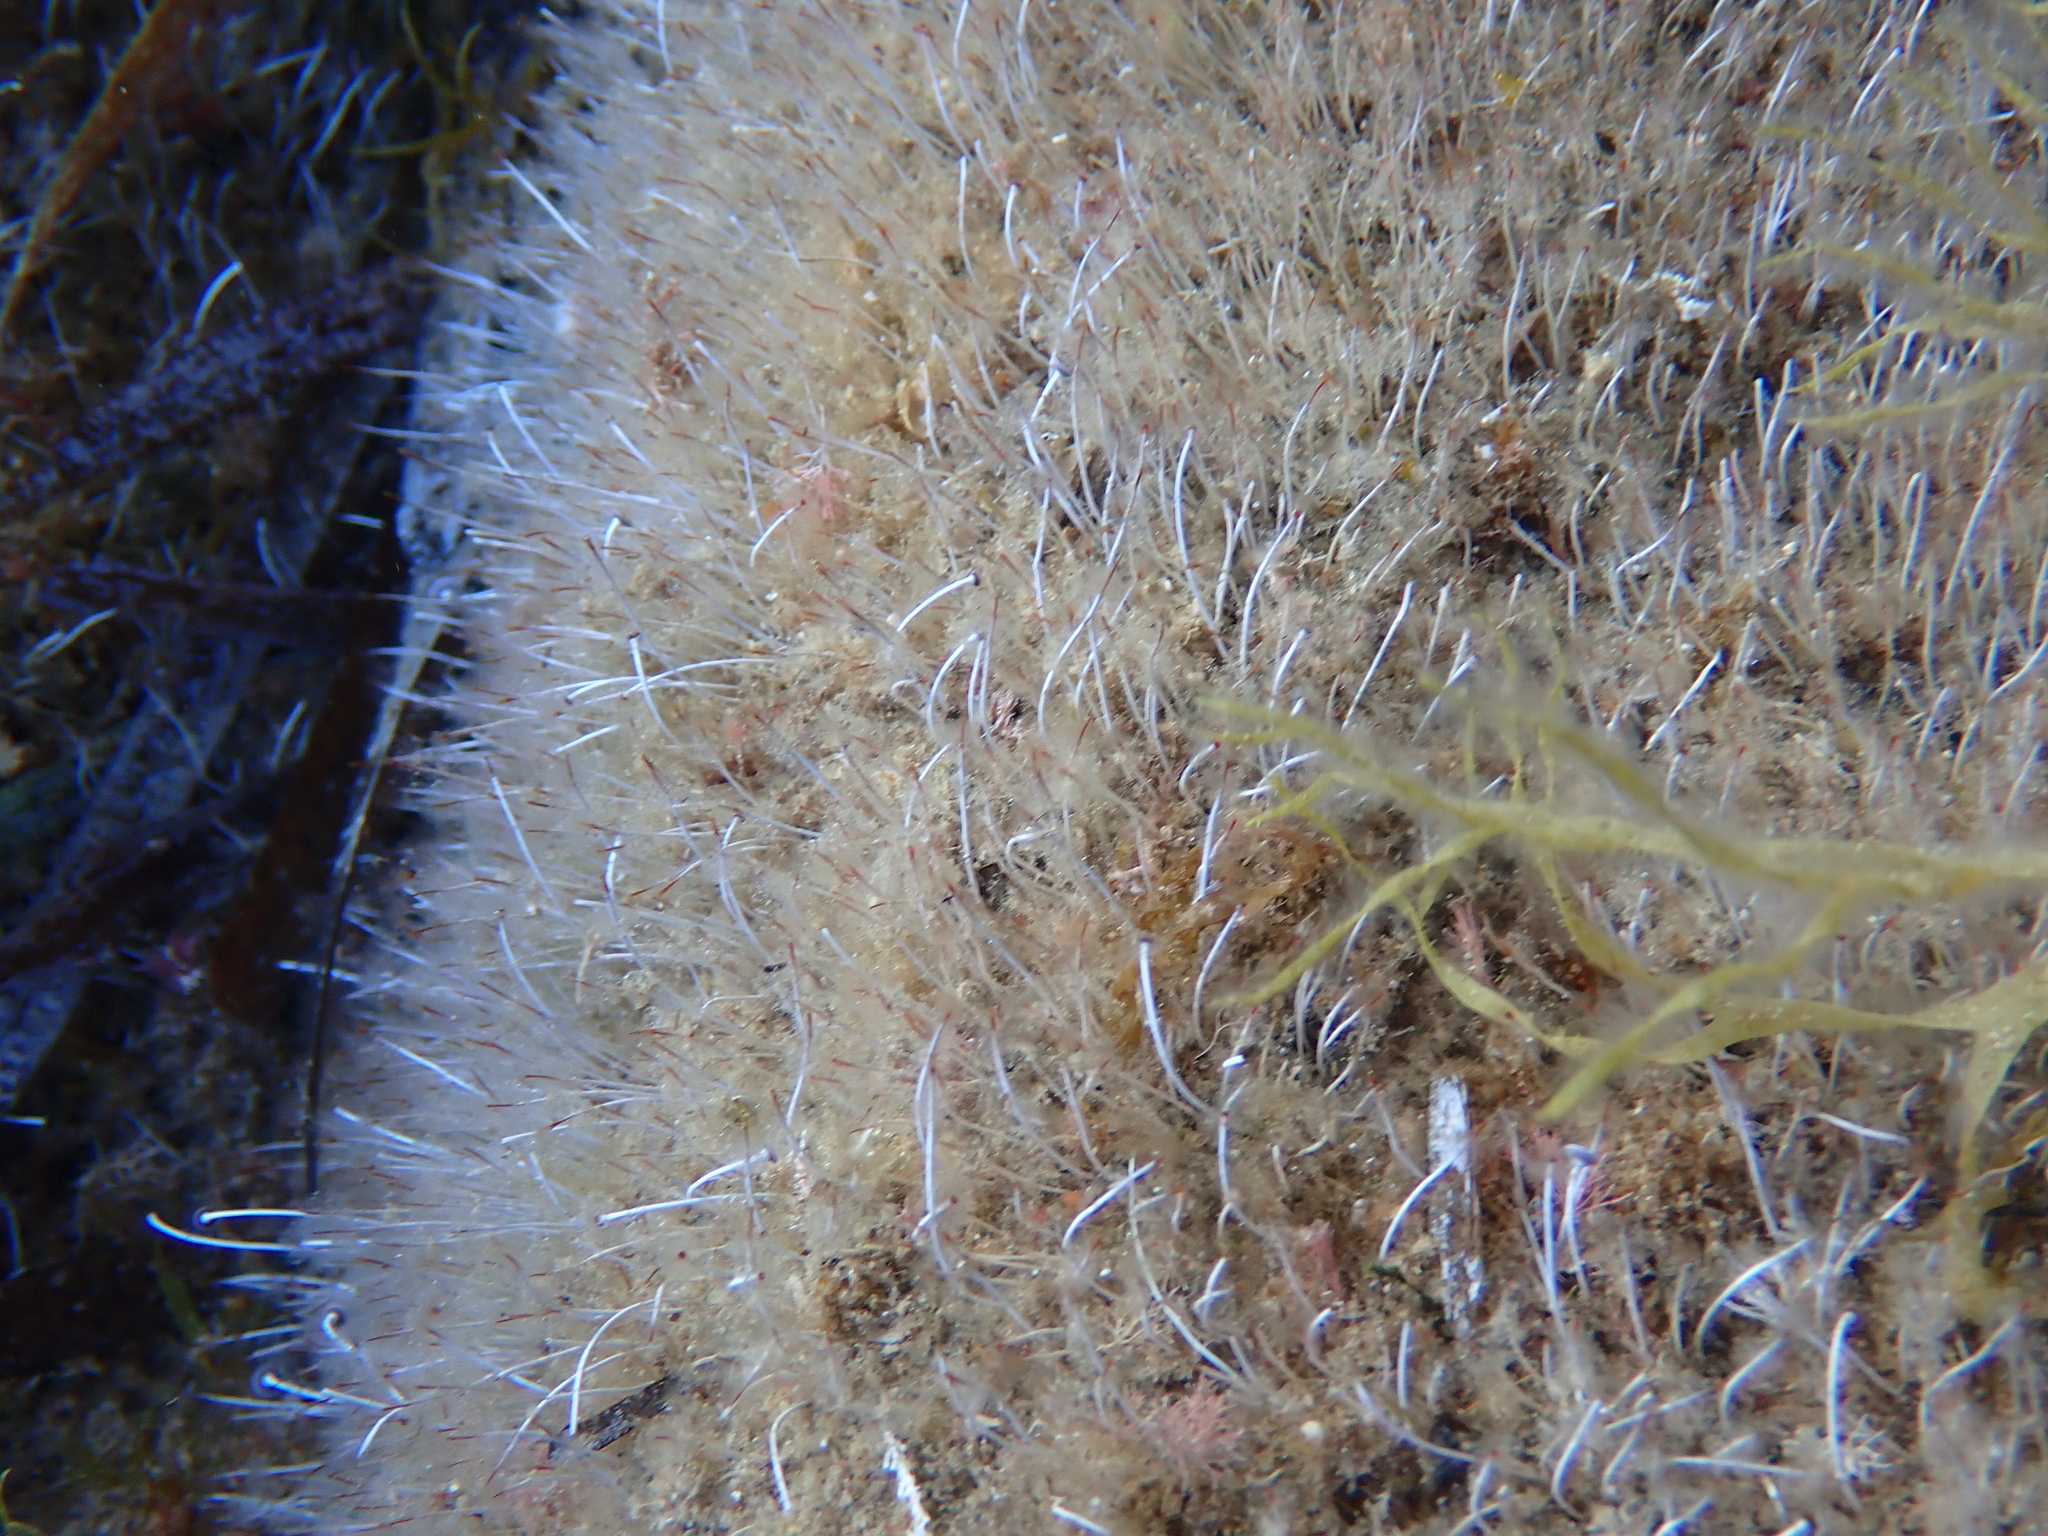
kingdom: Plantae
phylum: Chlorophyta
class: Ulvophyceae
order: Dasycladales
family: Polyphysaceae
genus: Acetabularia
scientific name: Acetabularia acetabulum
